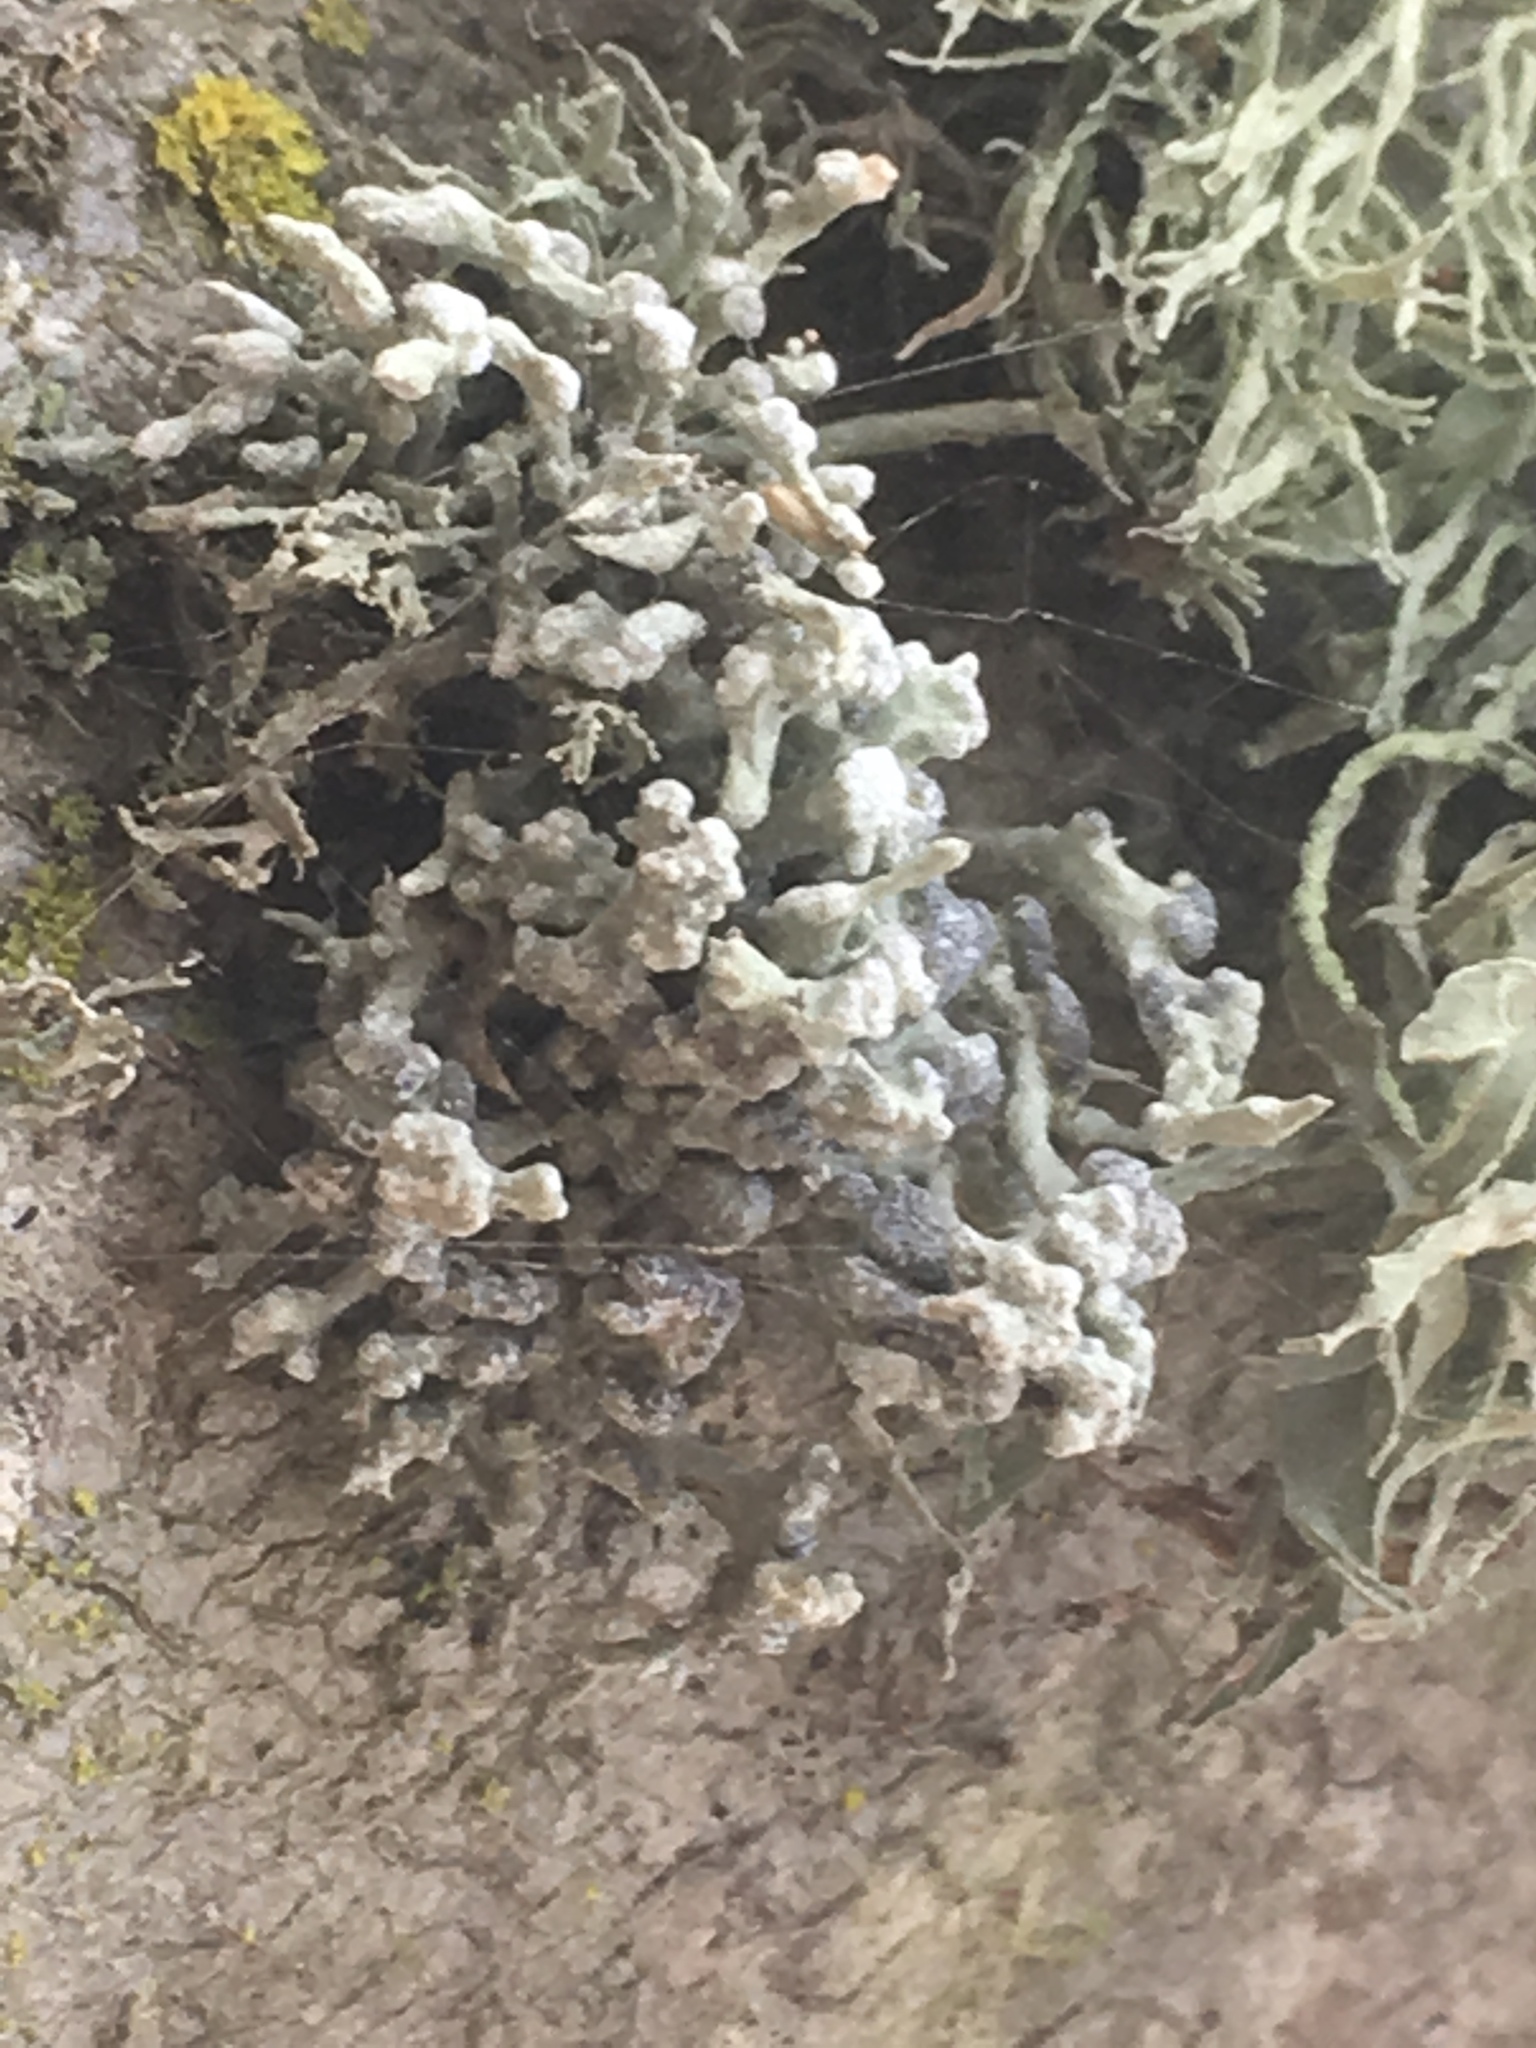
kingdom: Fungi
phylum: Ascomycota
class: Lecanoromycetes
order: Lecanorales
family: Ramalinaceae
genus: Niebla
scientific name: Niebla cephalota
